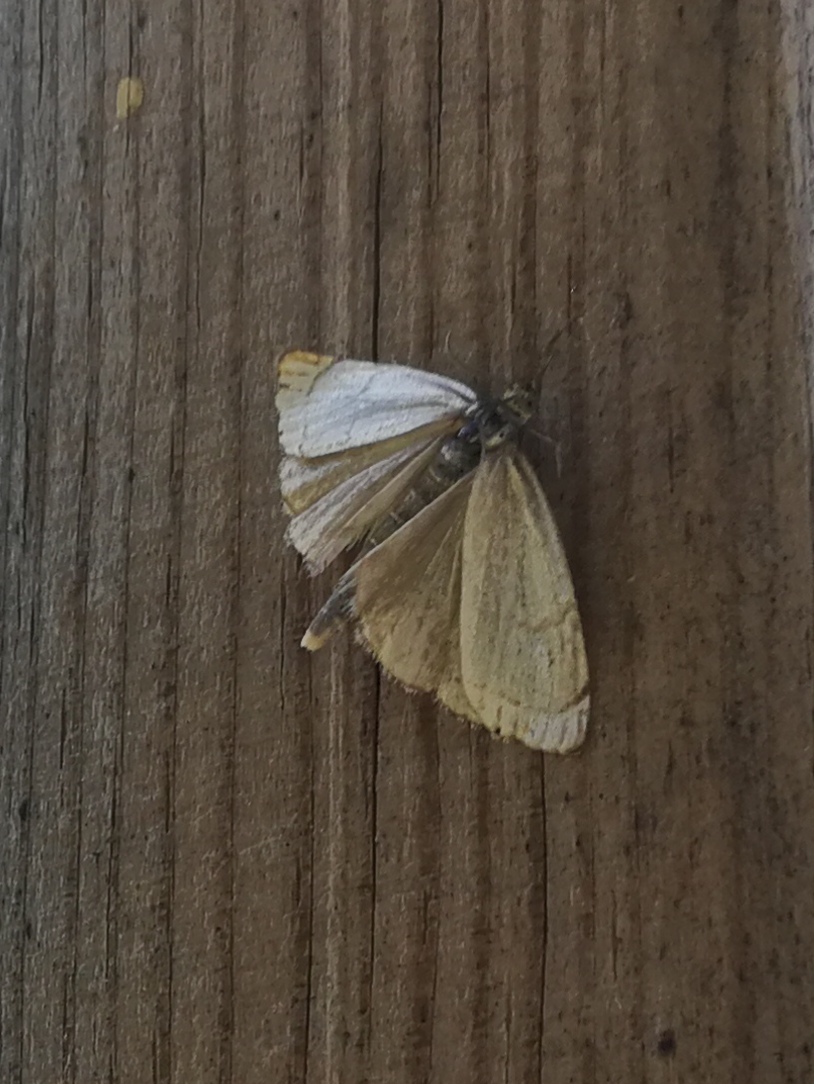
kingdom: Animalia
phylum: Arthropoda
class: Insecta
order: Lepidoptera
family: Crambidae
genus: Chrysocrambus
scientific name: Chrysocrambus linetella
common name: Orange-bar grass-veneer
